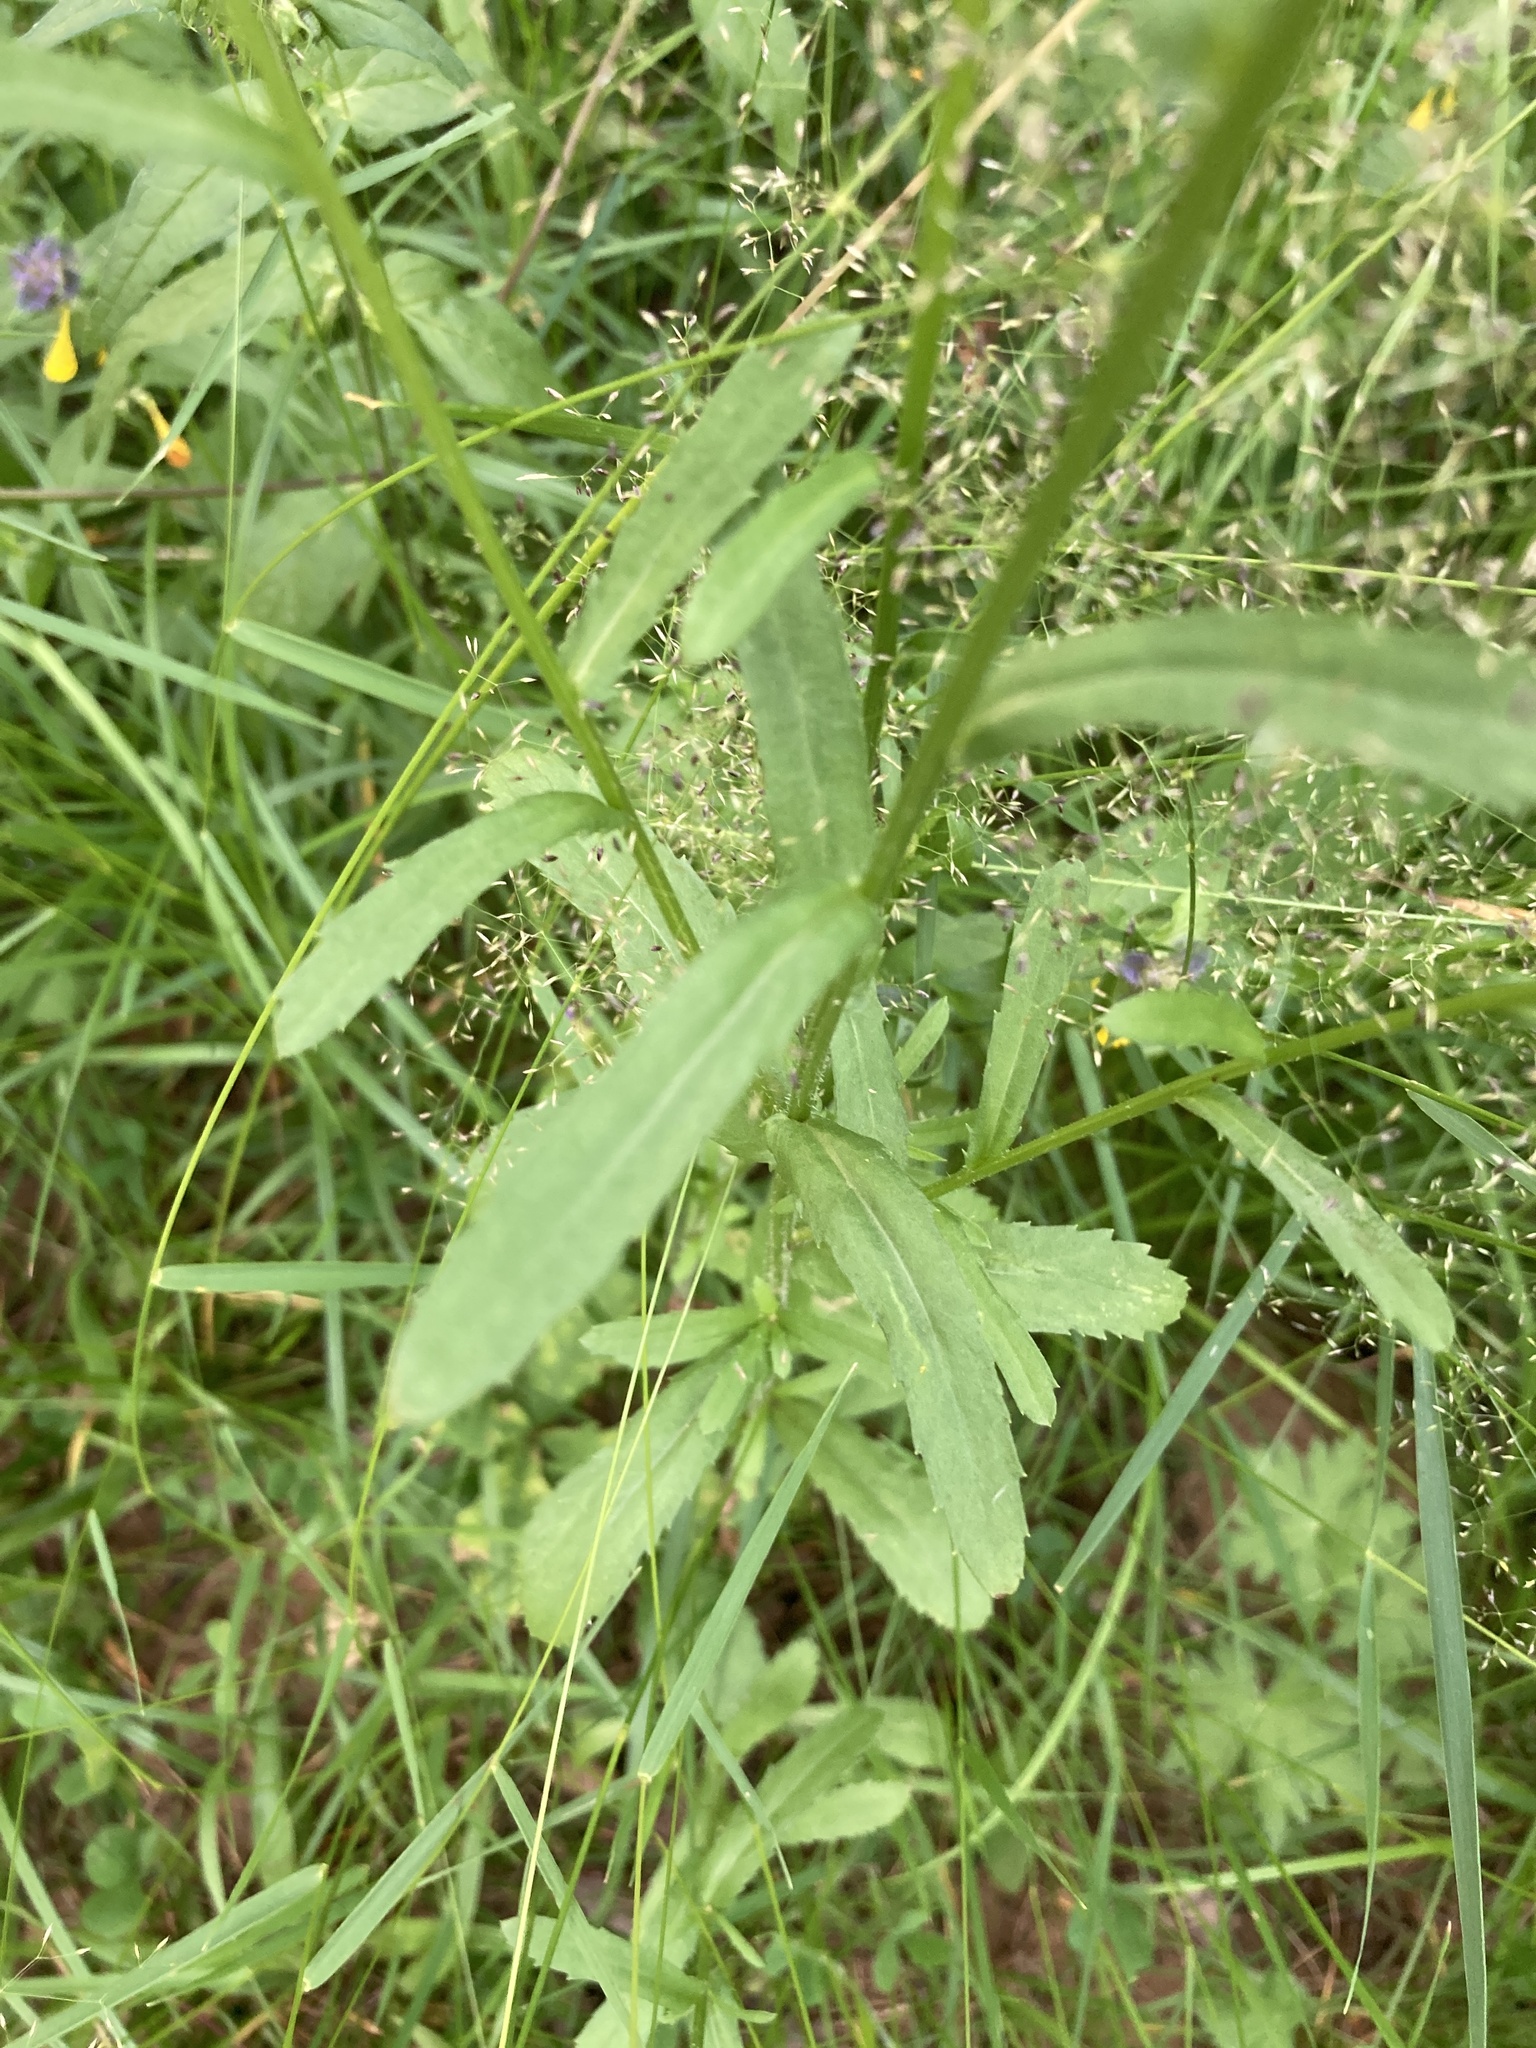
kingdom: Plantae
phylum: Tracheophyta
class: Magnoliopsida
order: Asterales
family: Asteraceae
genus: Leucanthemum
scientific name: Leucanthemum vulgare
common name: Oxeye daisy
